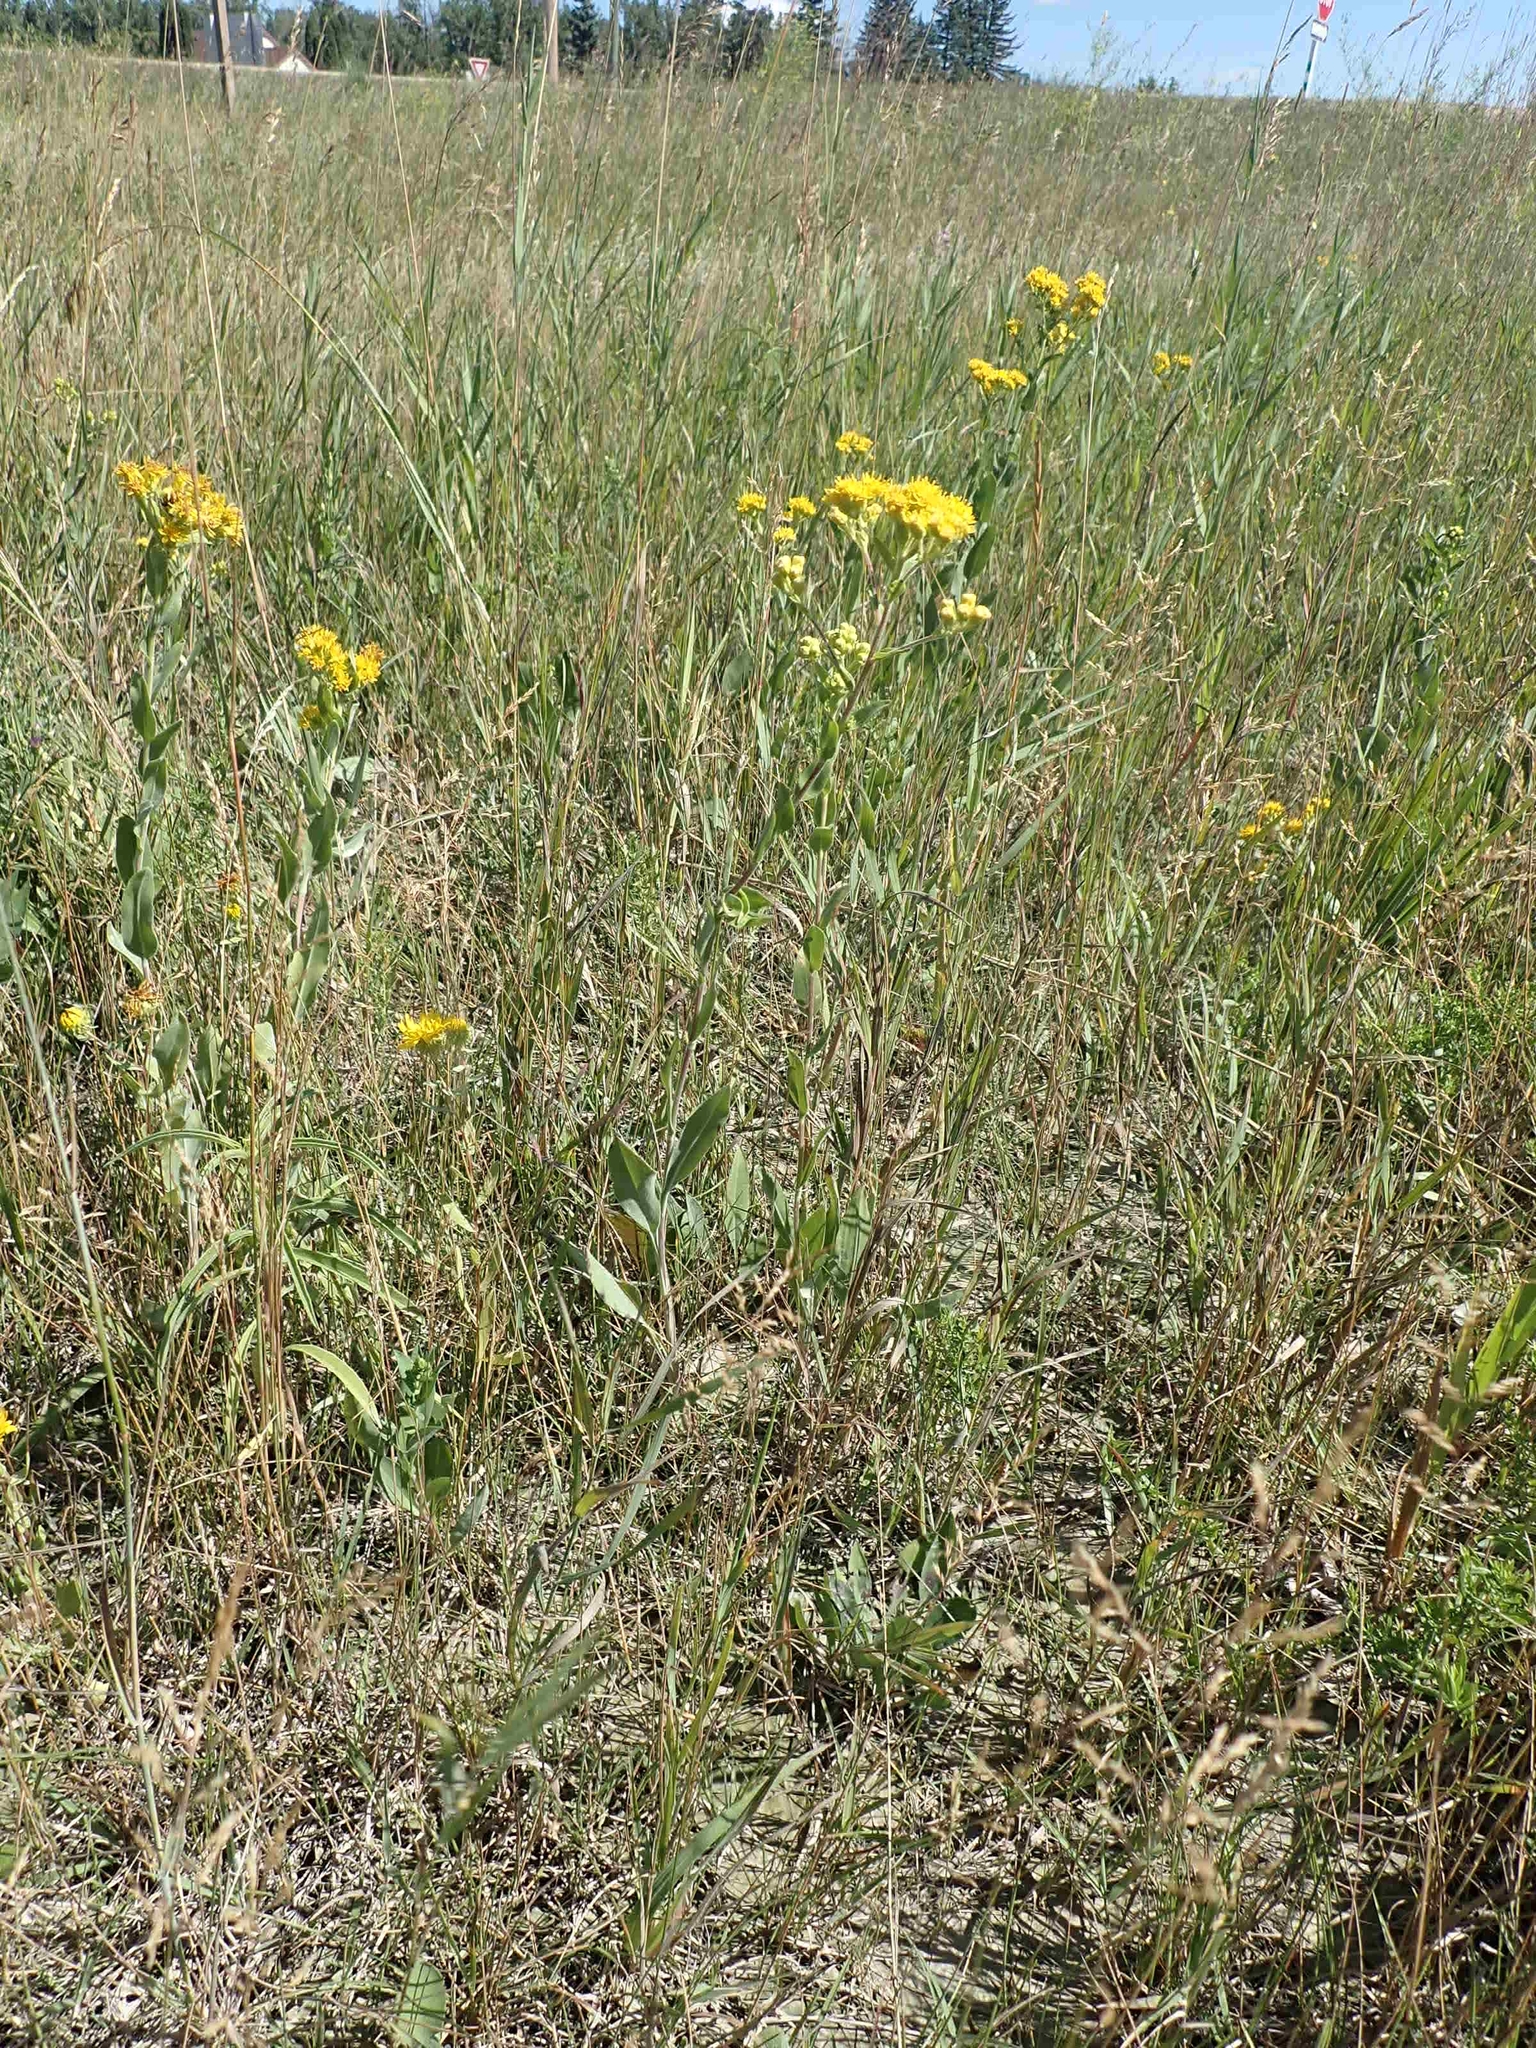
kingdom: Plantae
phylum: Tracheophyta
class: Magnoliopsida
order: Asterales
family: Asteraceae
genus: Solidago
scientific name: Solidago rigida
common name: Rigid goldenrod
